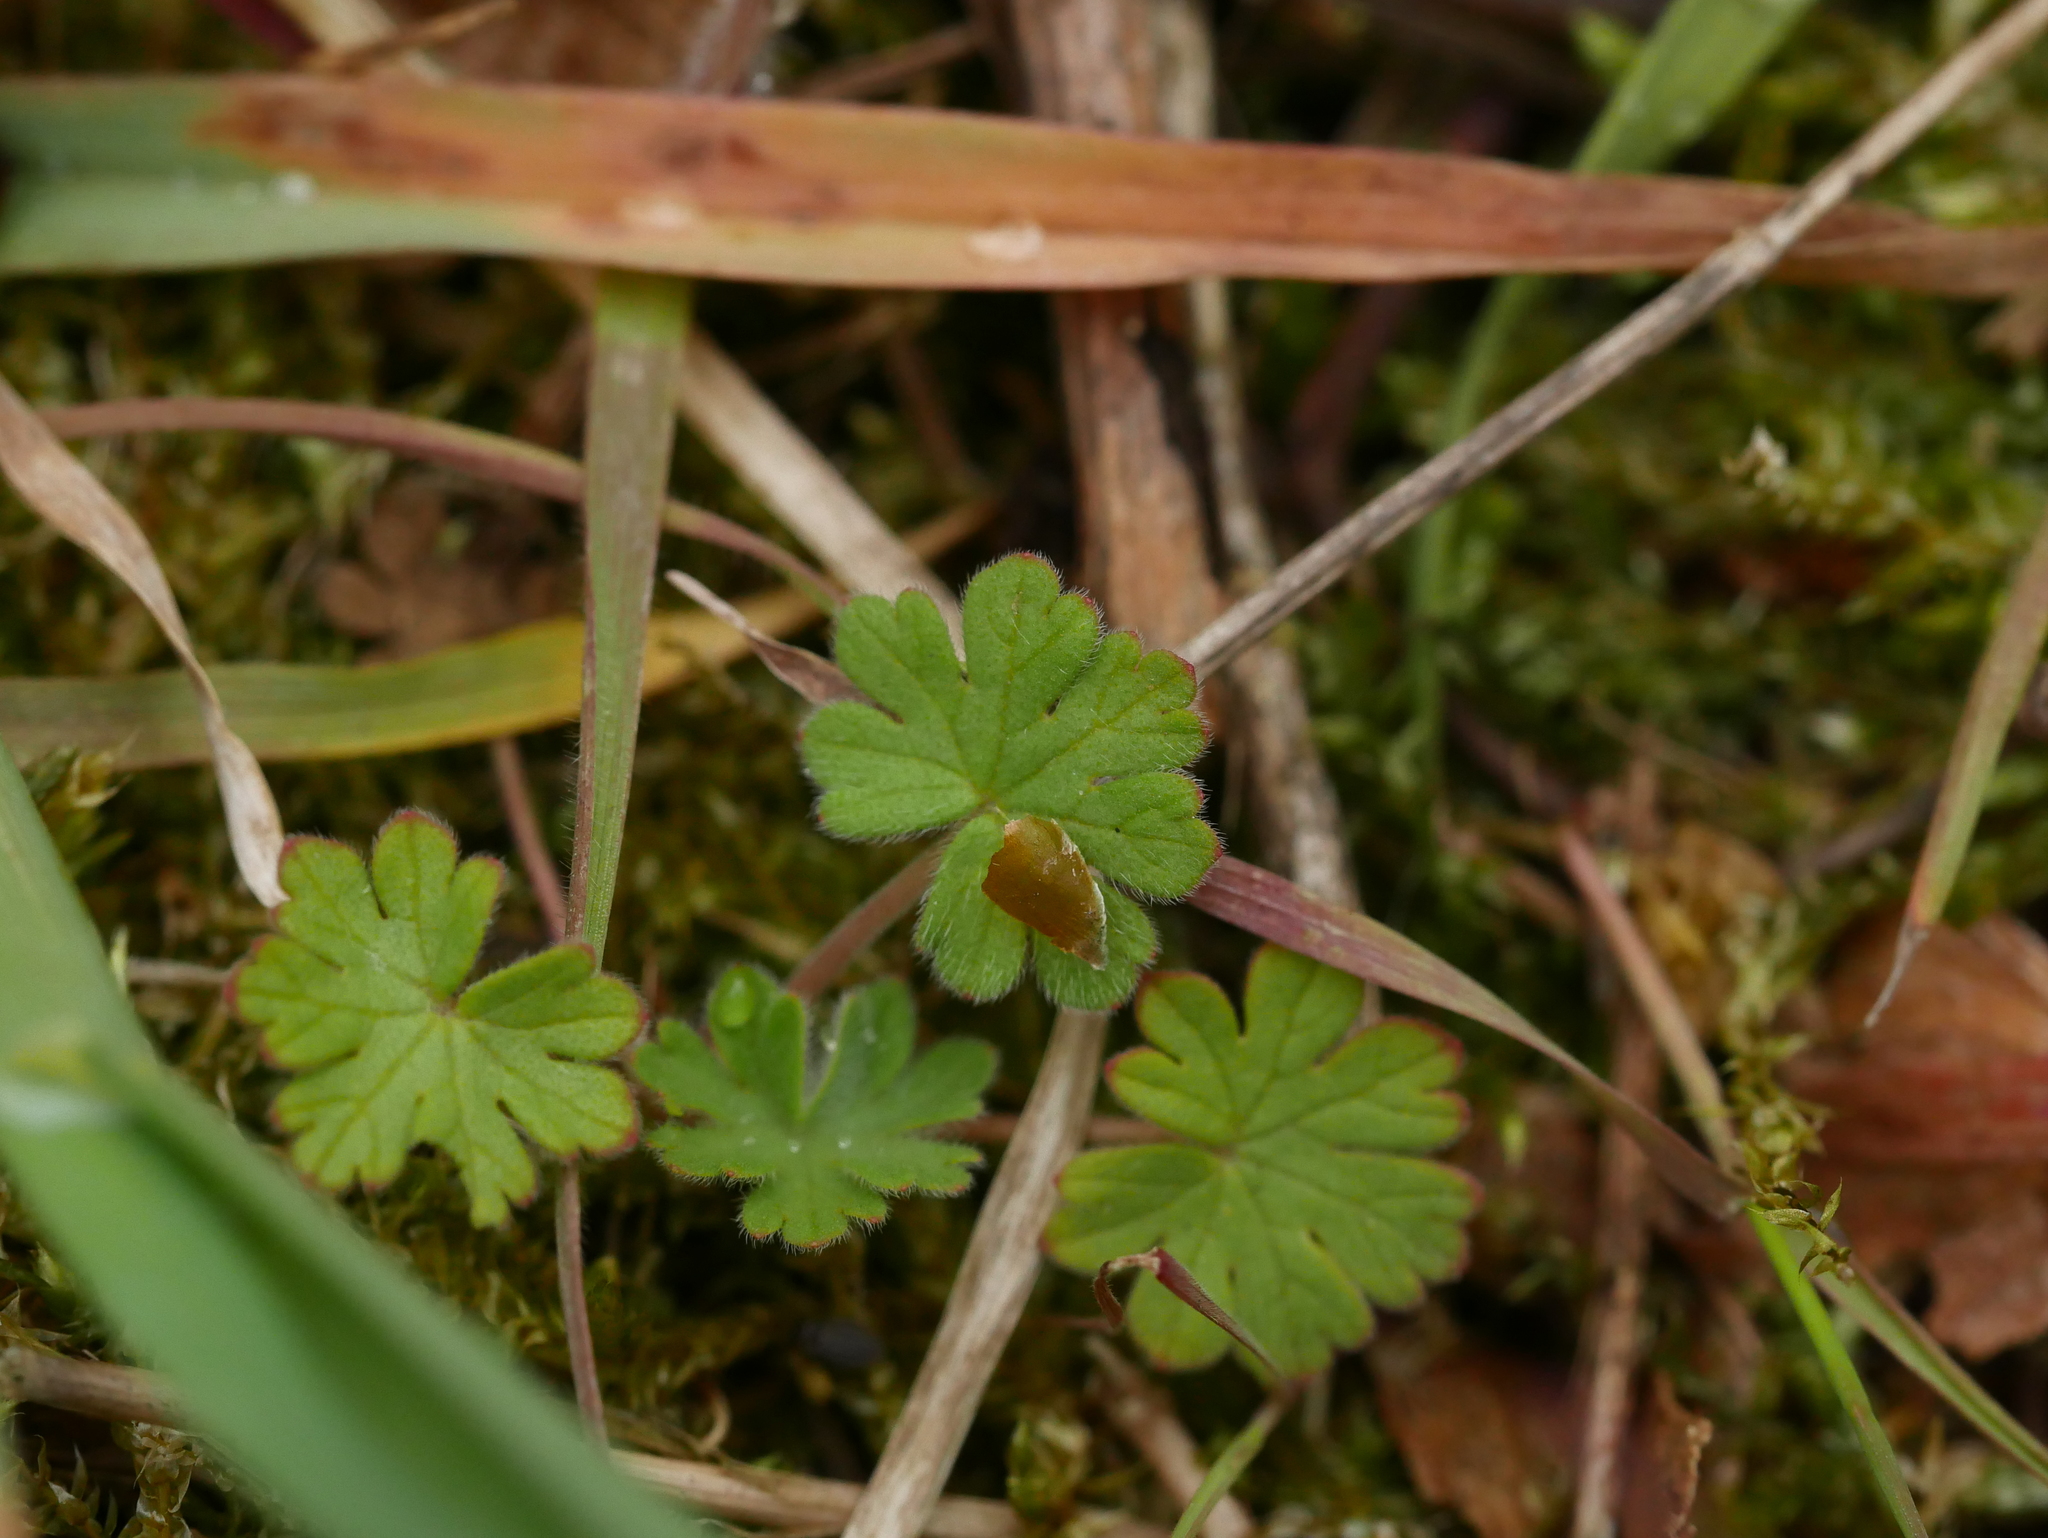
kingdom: Plantae
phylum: Tracheophyta
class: Magnoliopsida
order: Geraniales
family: Geraniaceae
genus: Geranium
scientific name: Geranium molle
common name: Dove's-foot crane's-bill
